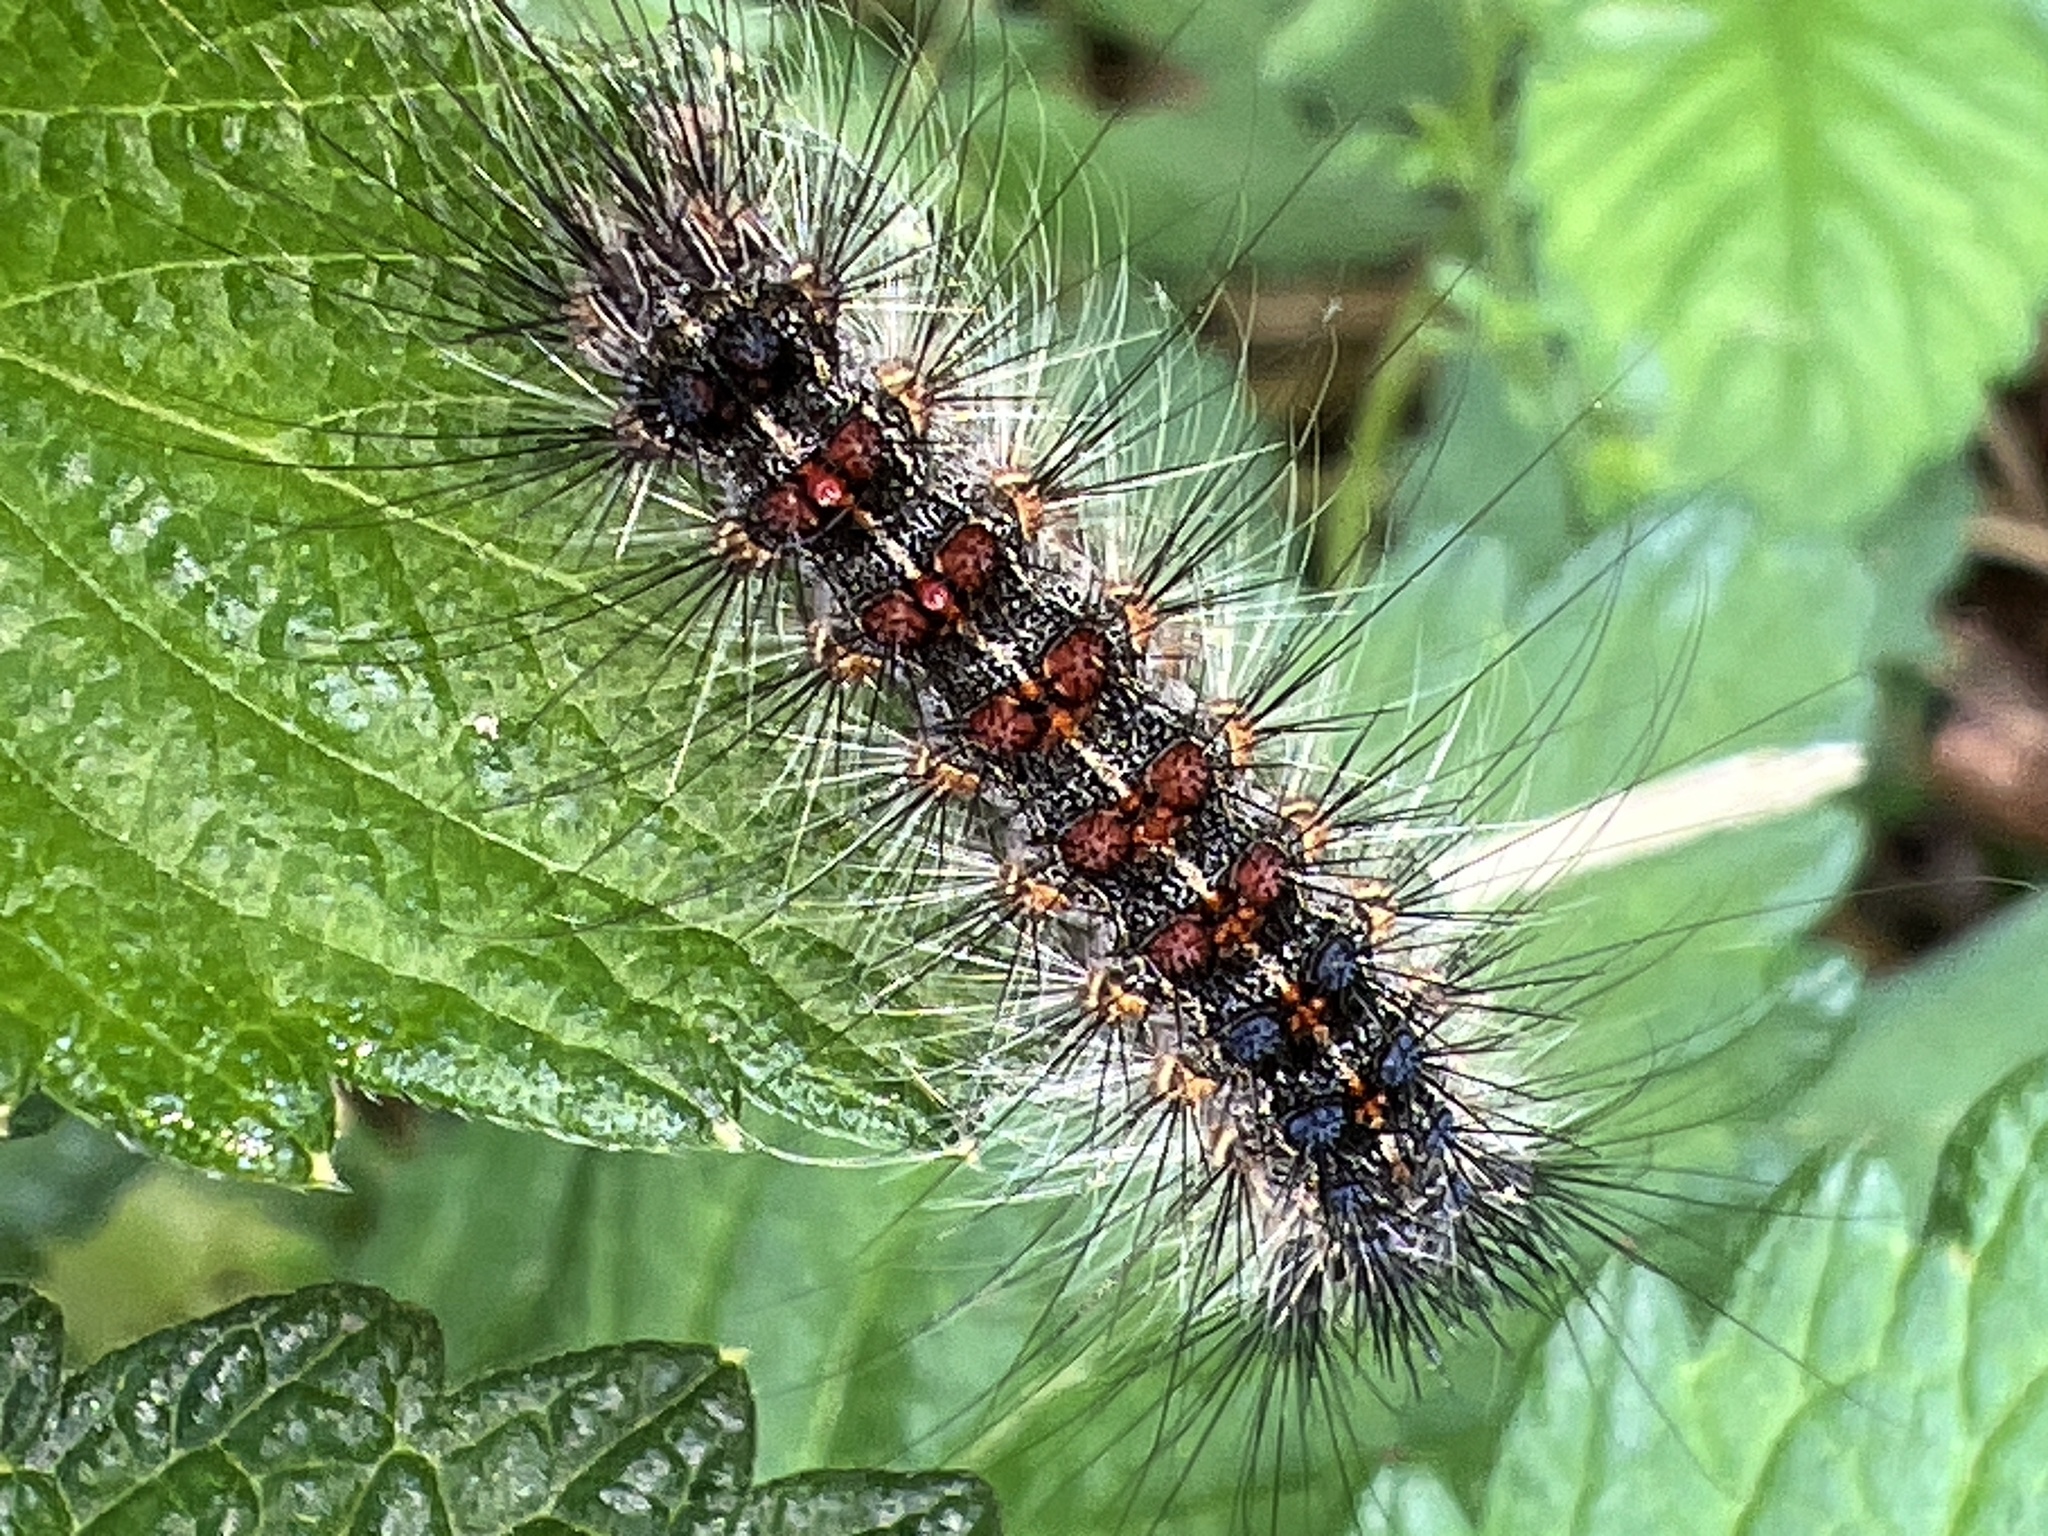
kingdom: Animalia
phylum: Arthropoda
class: Insecta
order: Lepidoptera
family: Erebidae
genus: Lymantria
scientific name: Lymantria dispar
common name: Gypsy moth
